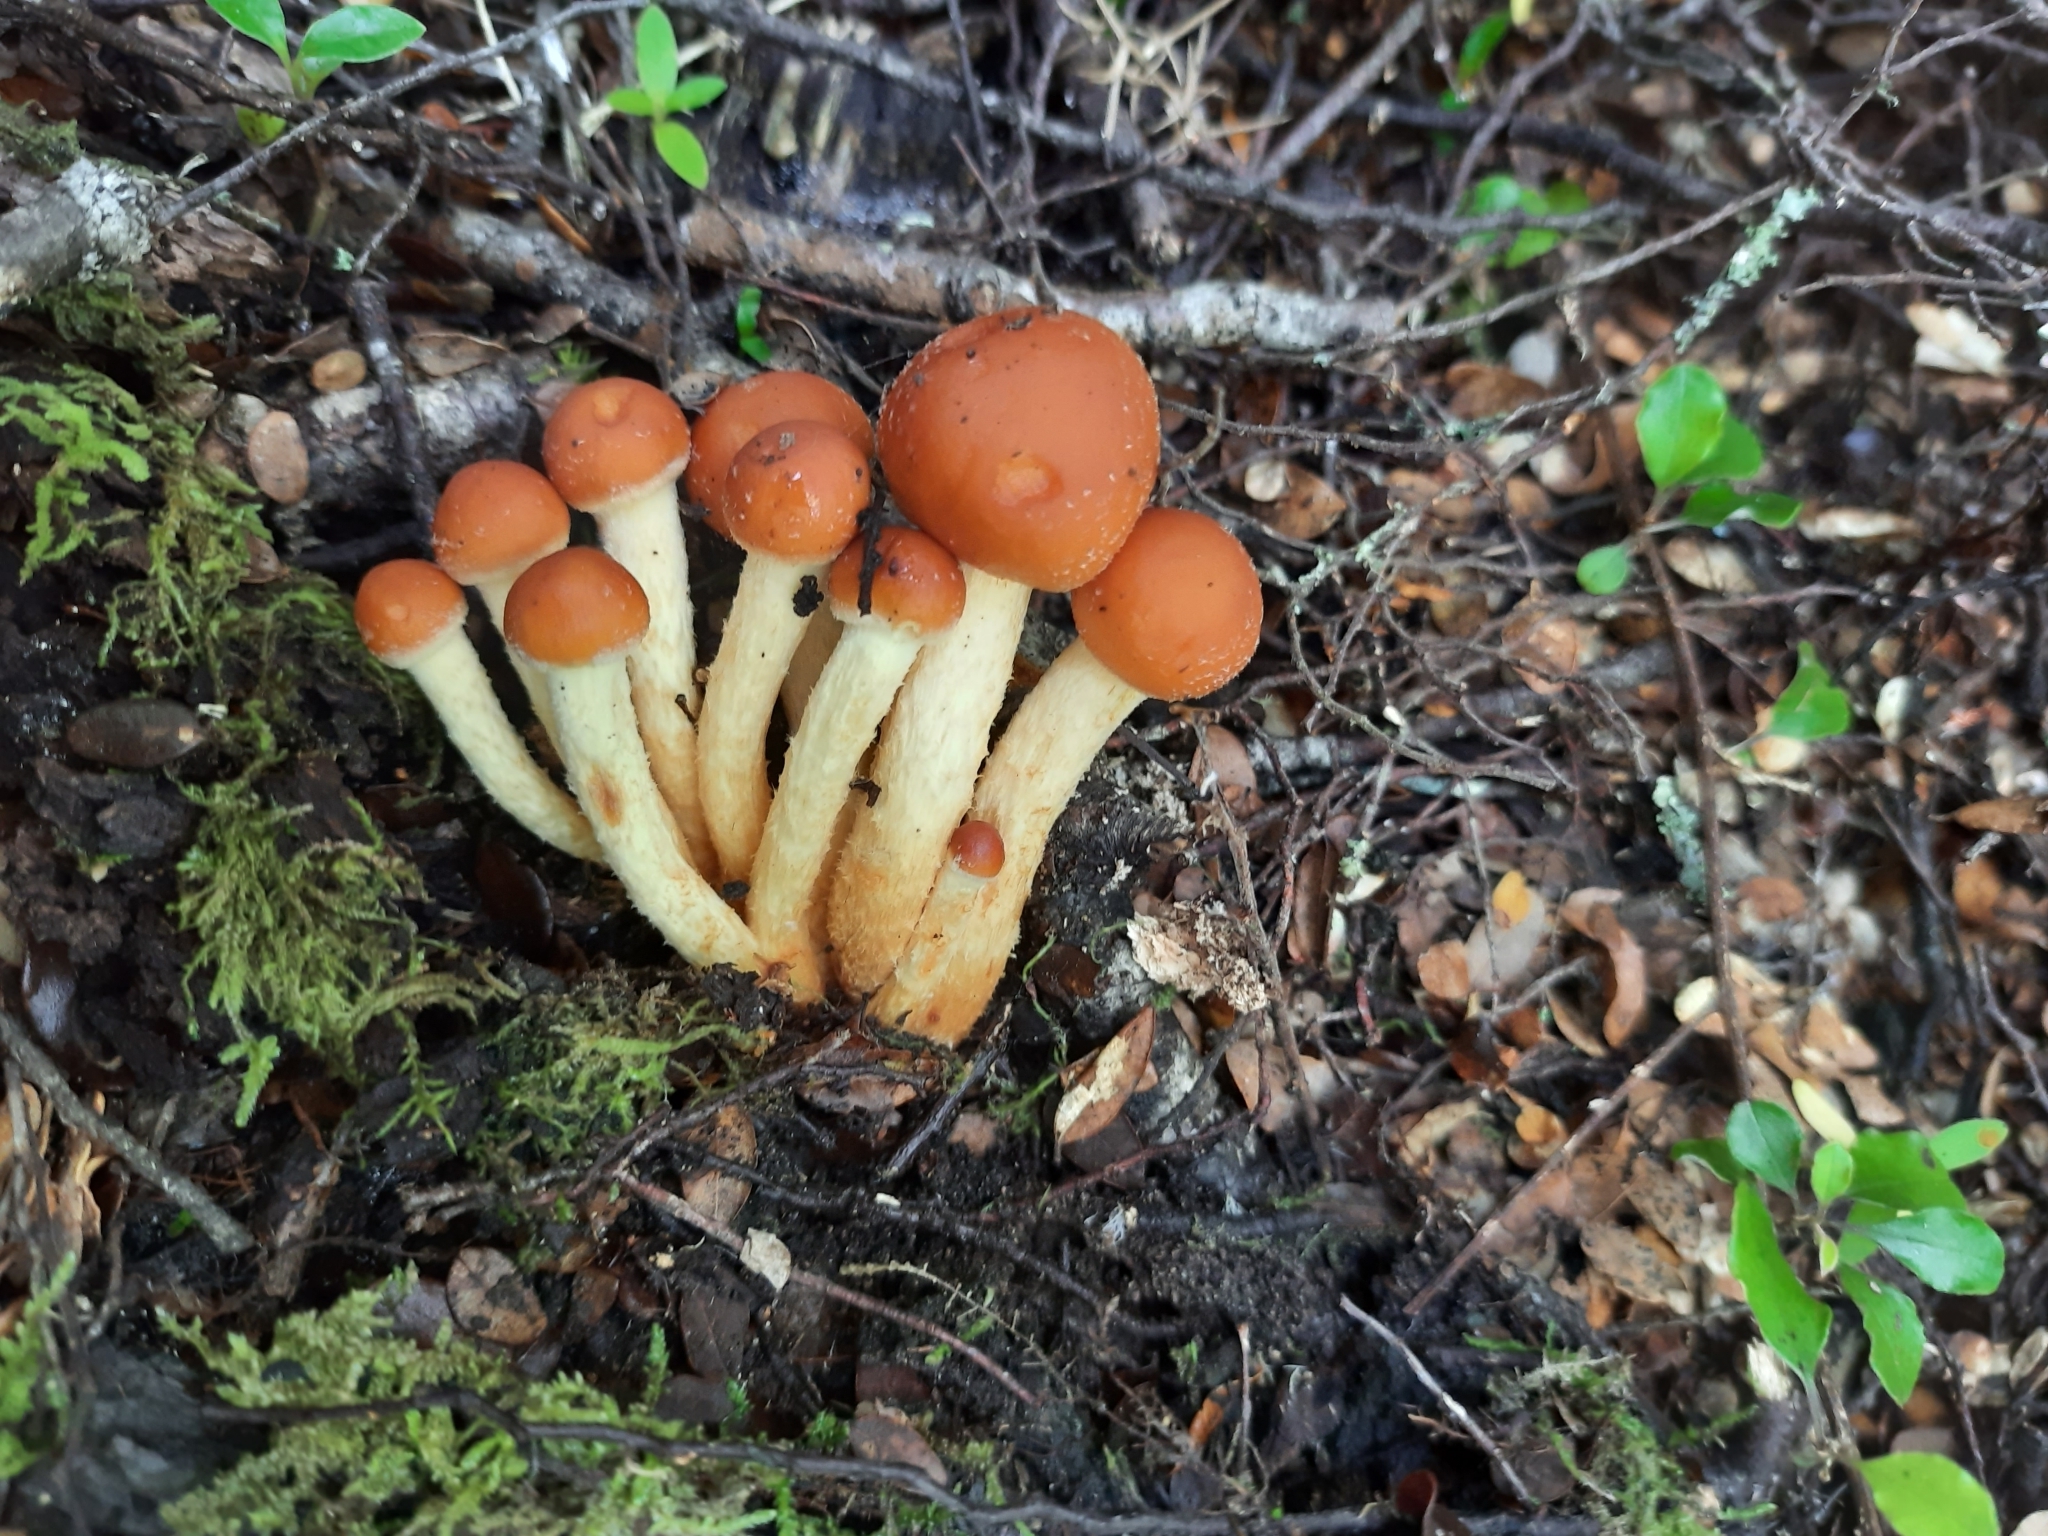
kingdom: Fungi
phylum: Basidiomycota
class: Agaricomycetes
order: Agaricales
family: Strophariaceae
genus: Hypholoma
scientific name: Hypholoma australianum
